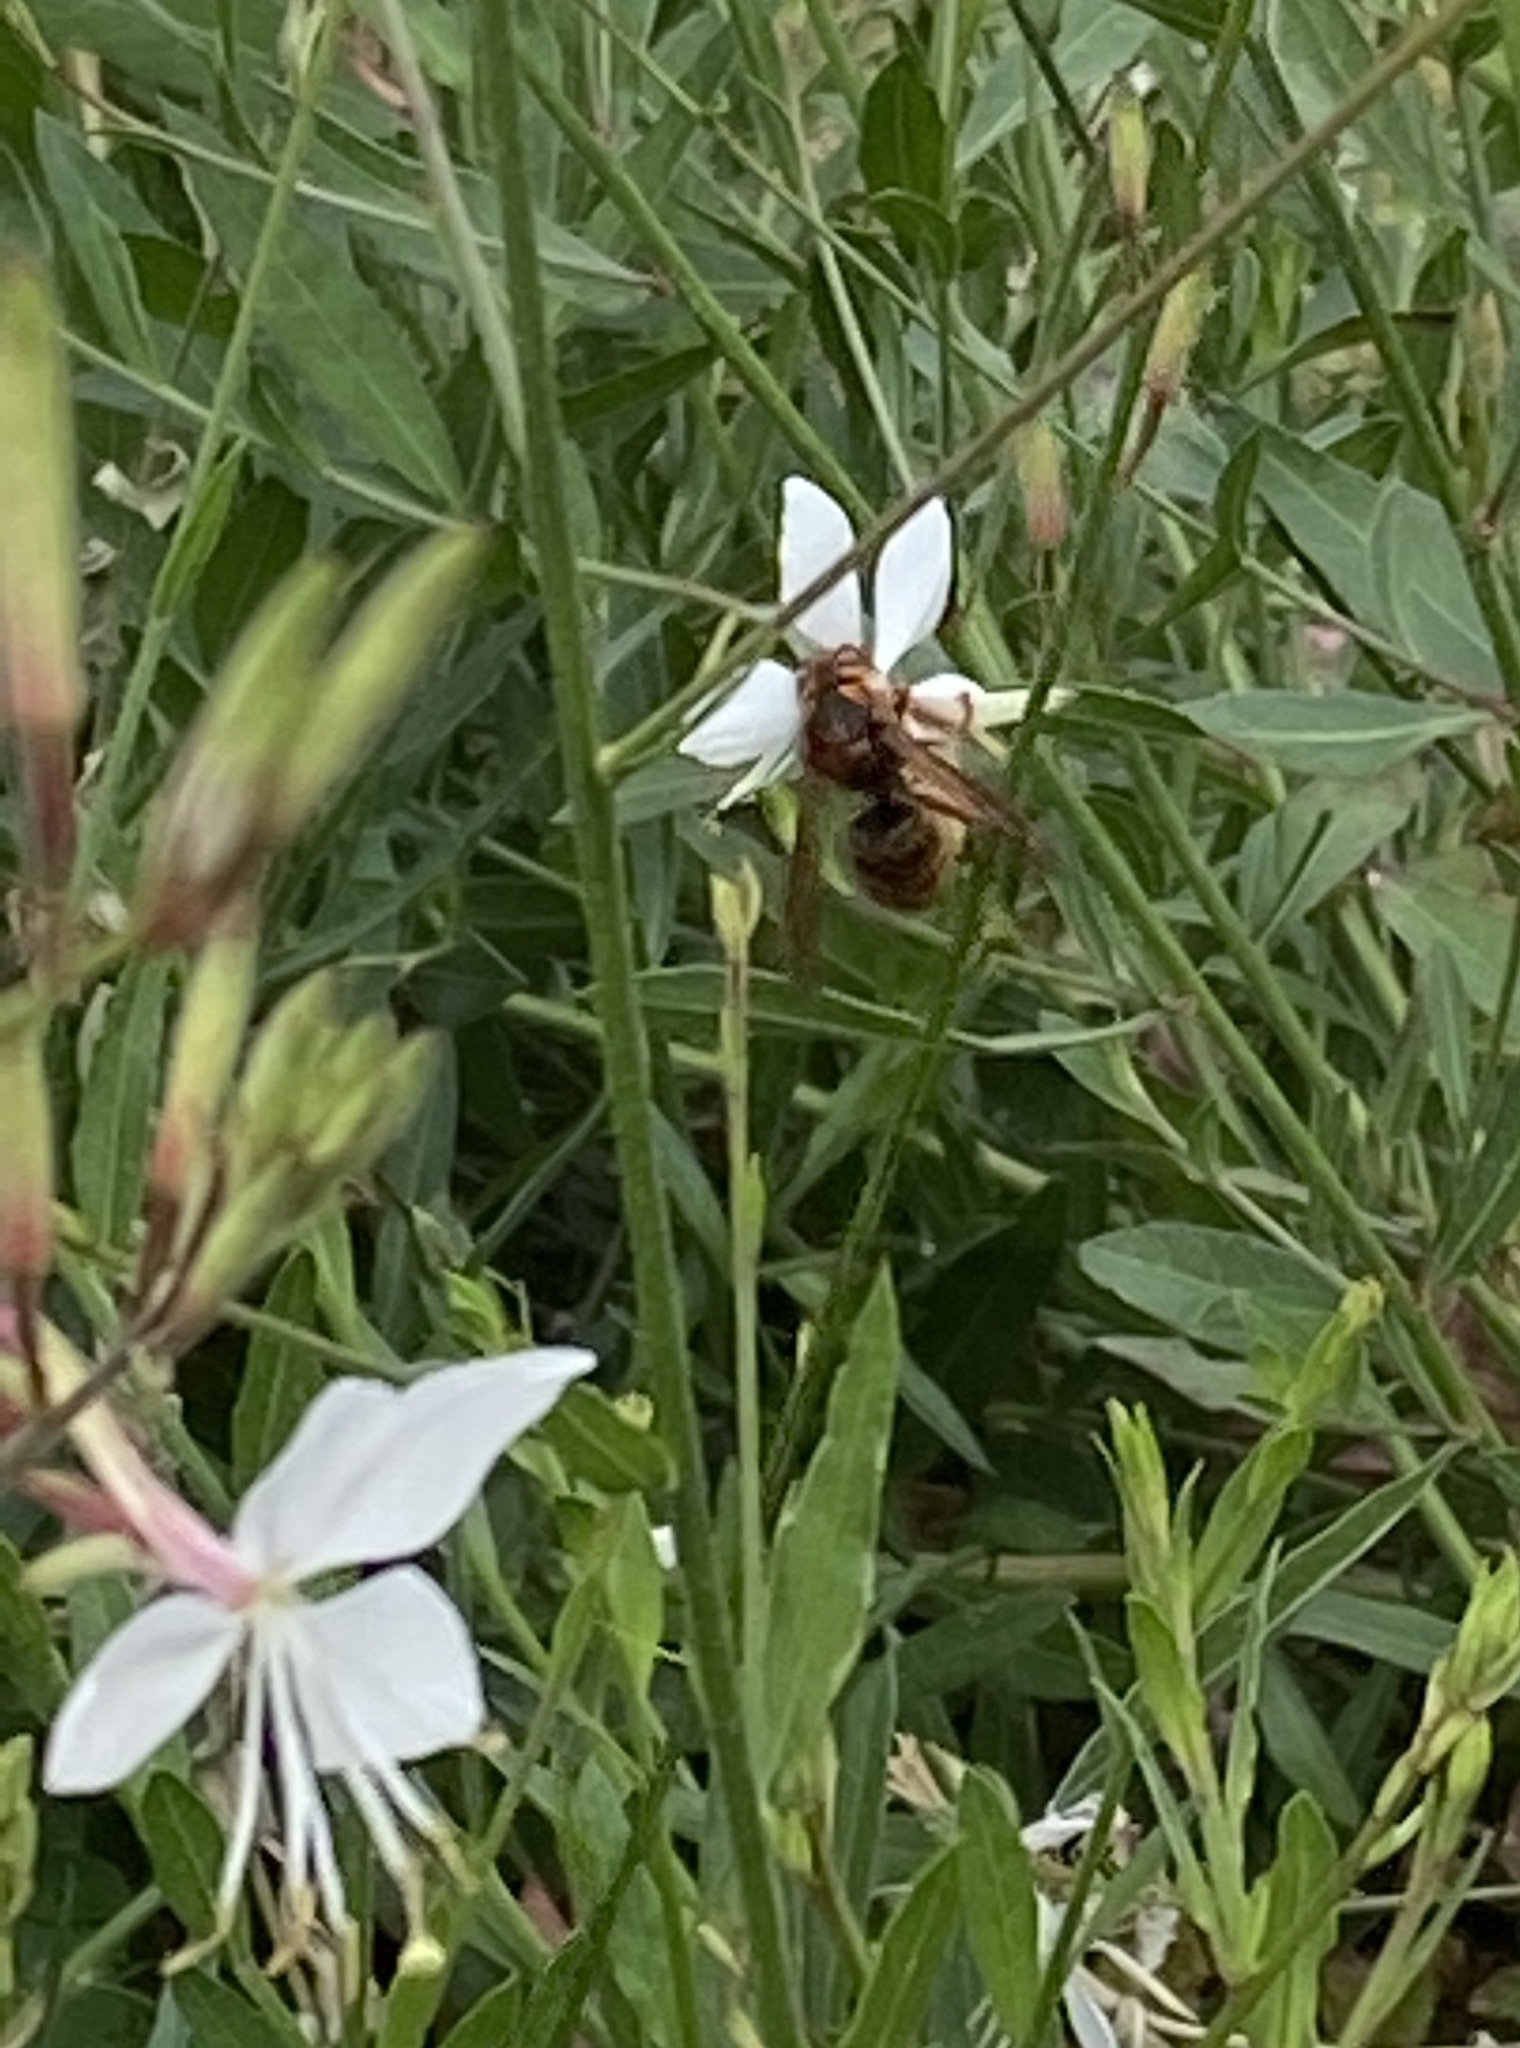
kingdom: Animalia
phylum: Arthropoda
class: Insecta
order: Hymenoptera
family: Vespidae
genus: Vespa
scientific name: Vespa crabro
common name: Hornet
